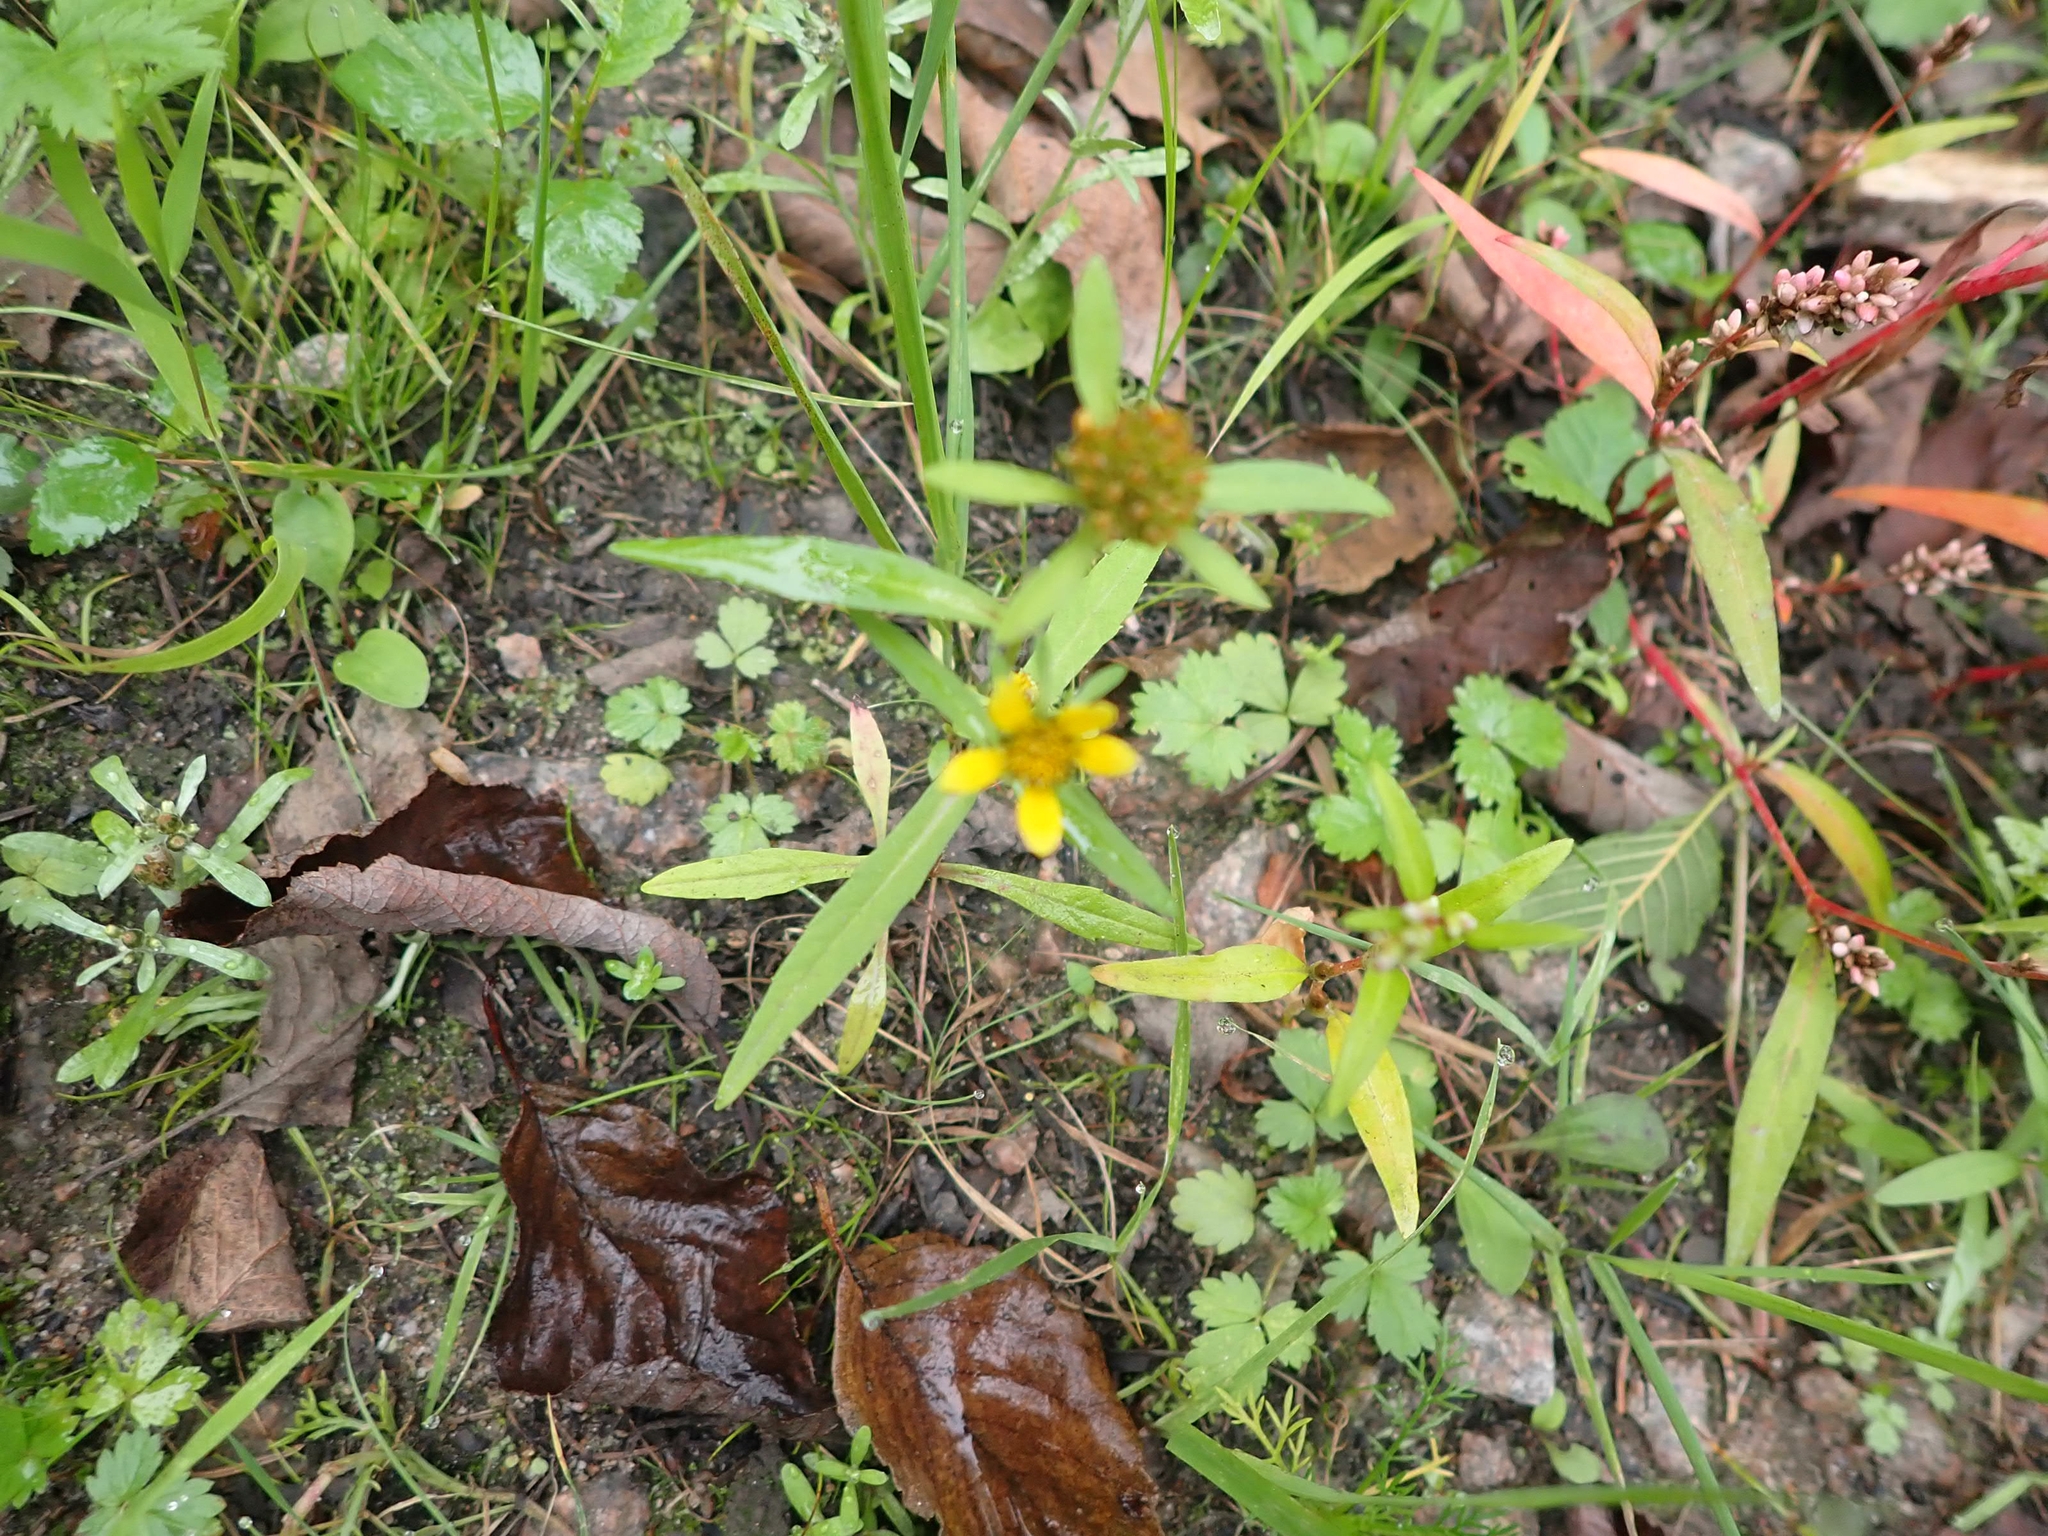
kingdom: Plantae
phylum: Tracheophyta
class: Magnoliopsida
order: Asterales
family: Asteraceae
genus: Bidens
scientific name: Bidens cernua
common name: Nodding bur-marigold
